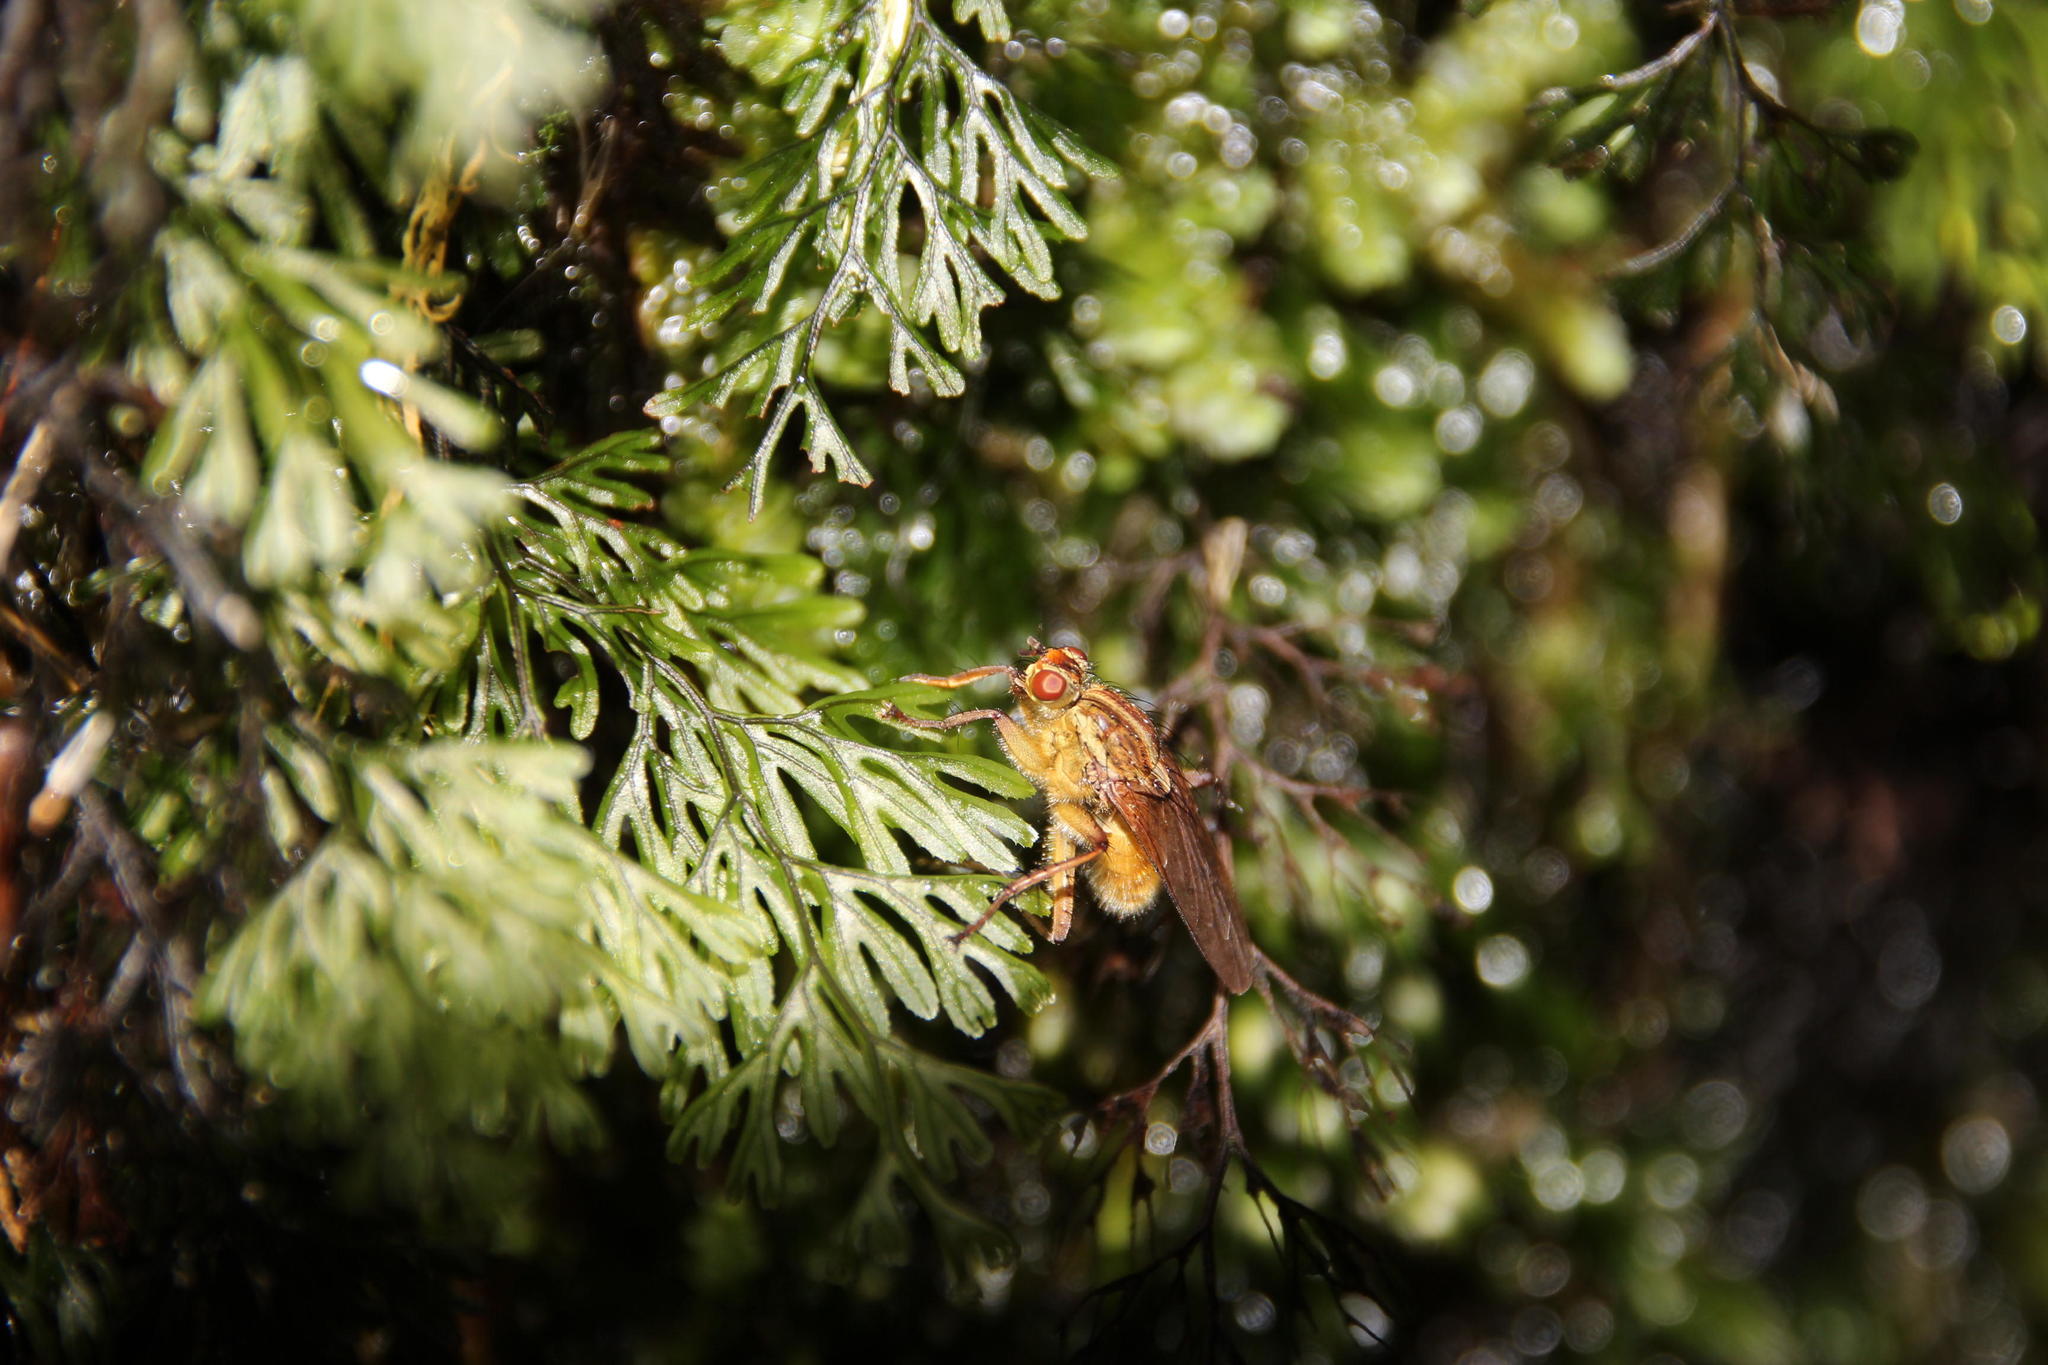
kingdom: Plantae
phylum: Tracheophyta
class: Polypodiopsida
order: Hymenophyllales
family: Hymenophyllaceae
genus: Hymenophyllum
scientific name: Hymenophyllum tunbrigense
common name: Tunbridge filmy fern
